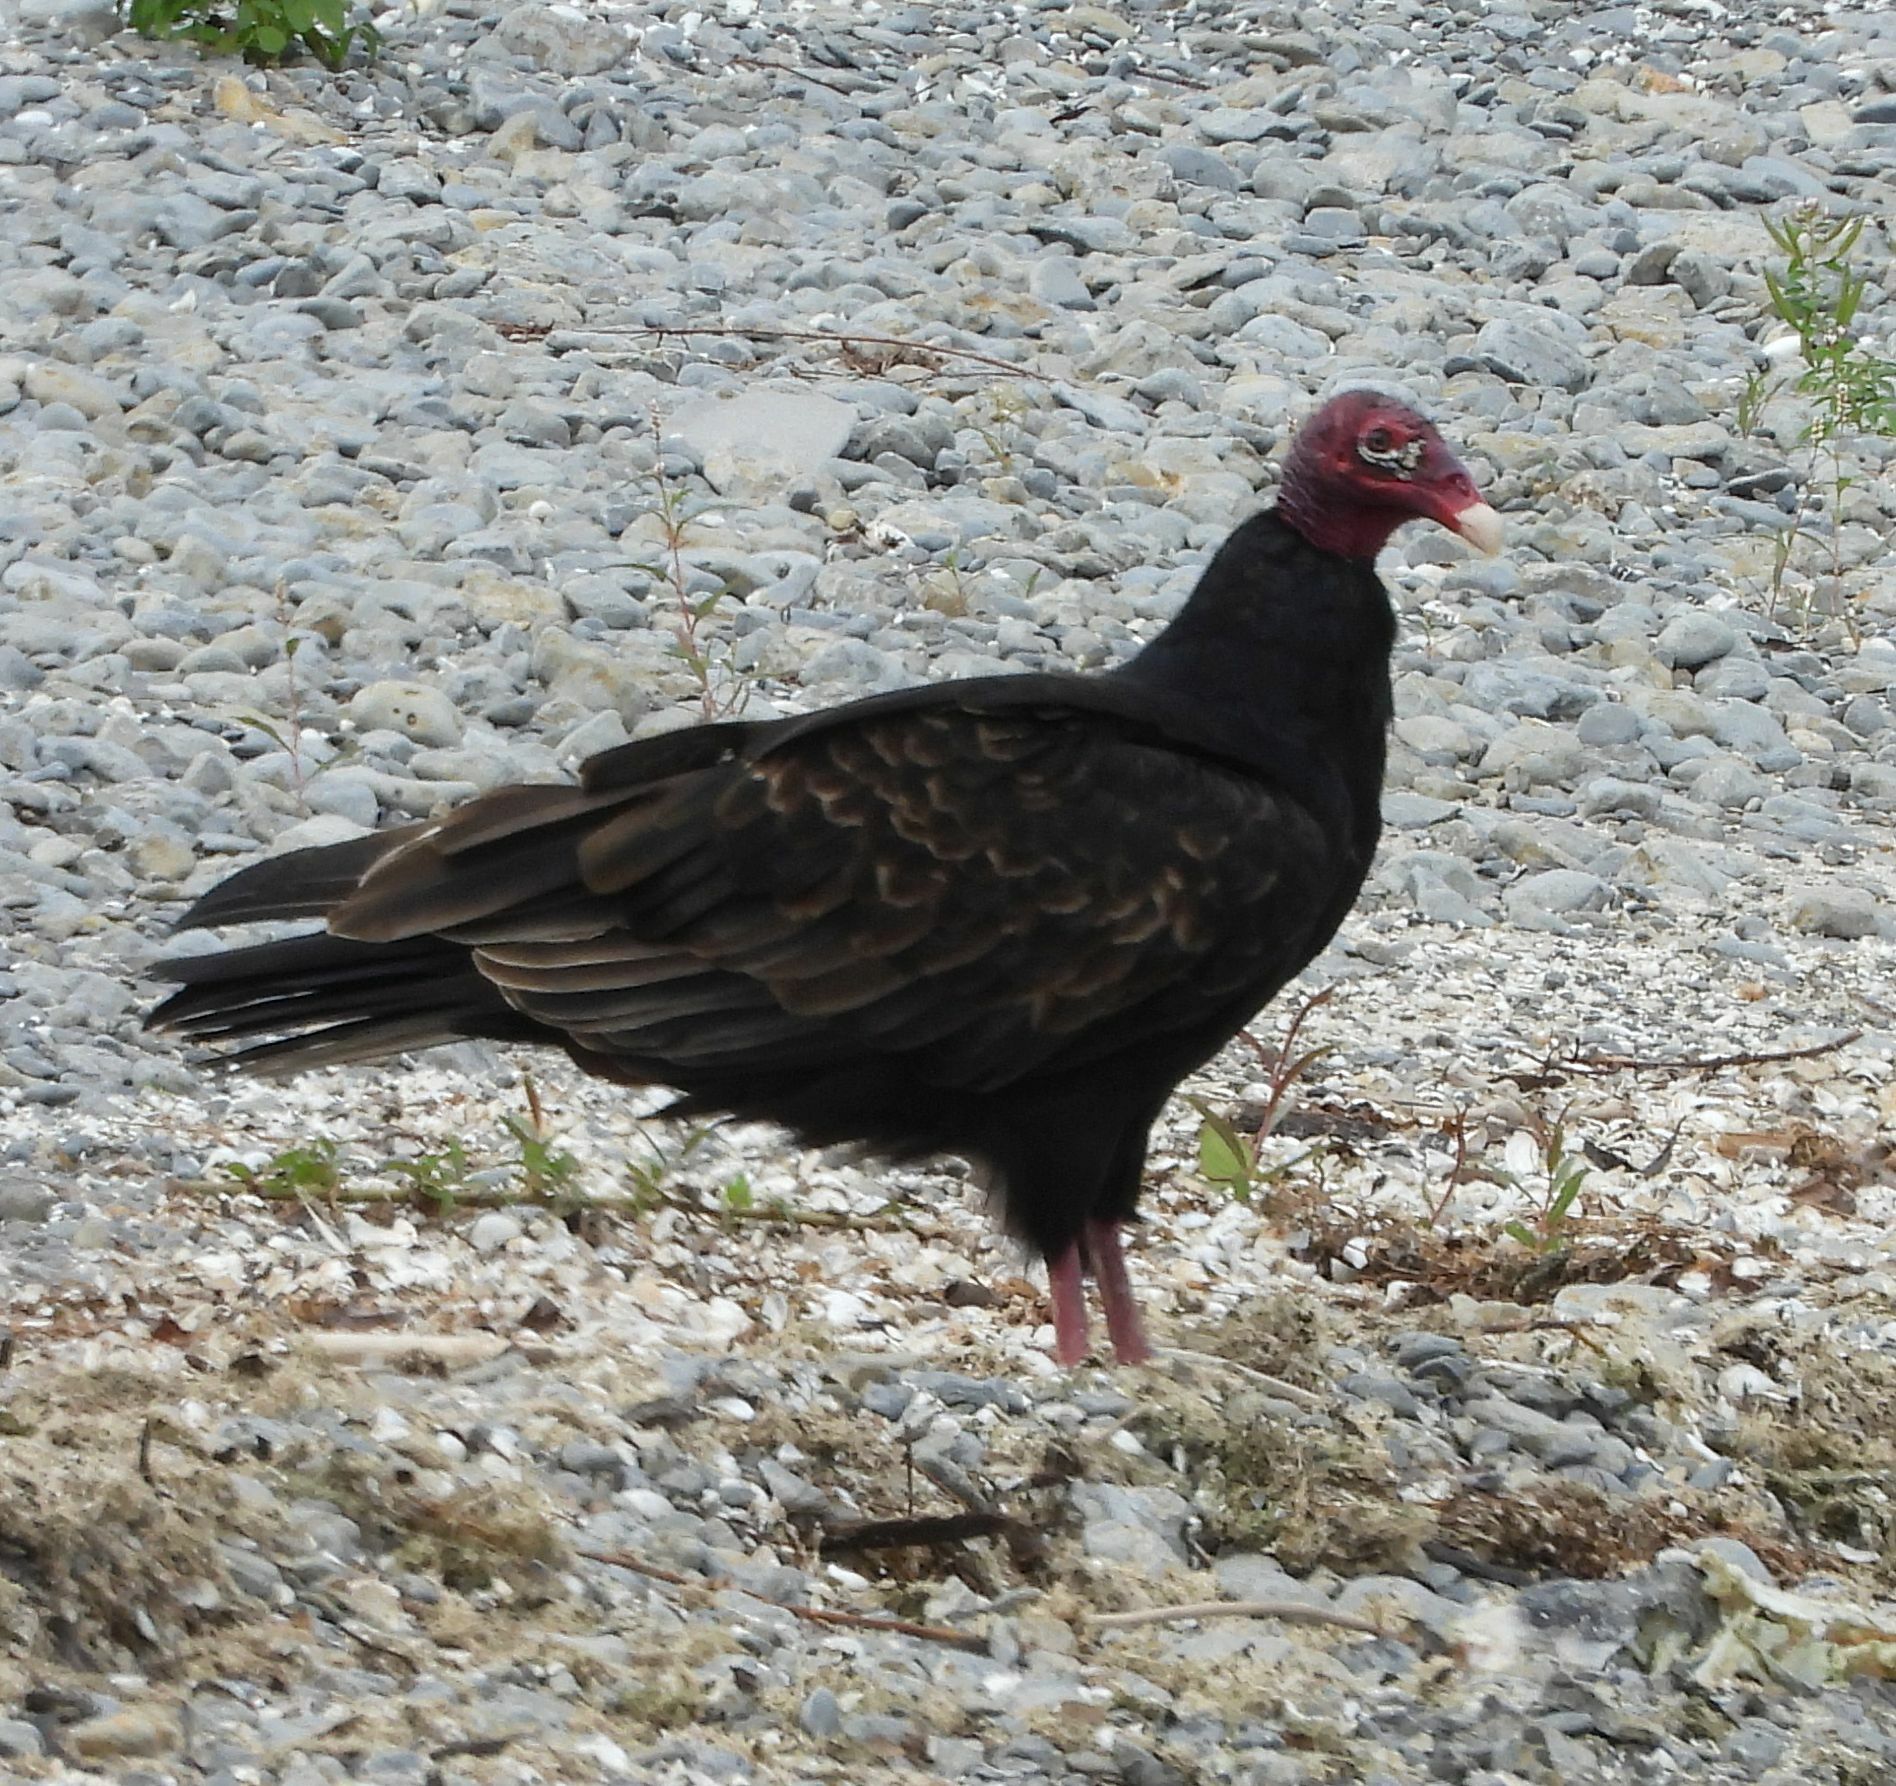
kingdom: Animalia
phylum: Chordata
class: Aves
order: Accipitriformes
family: Cathartidae
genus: Cathartes
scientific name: Cathartes aura
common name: Turkey vulture
